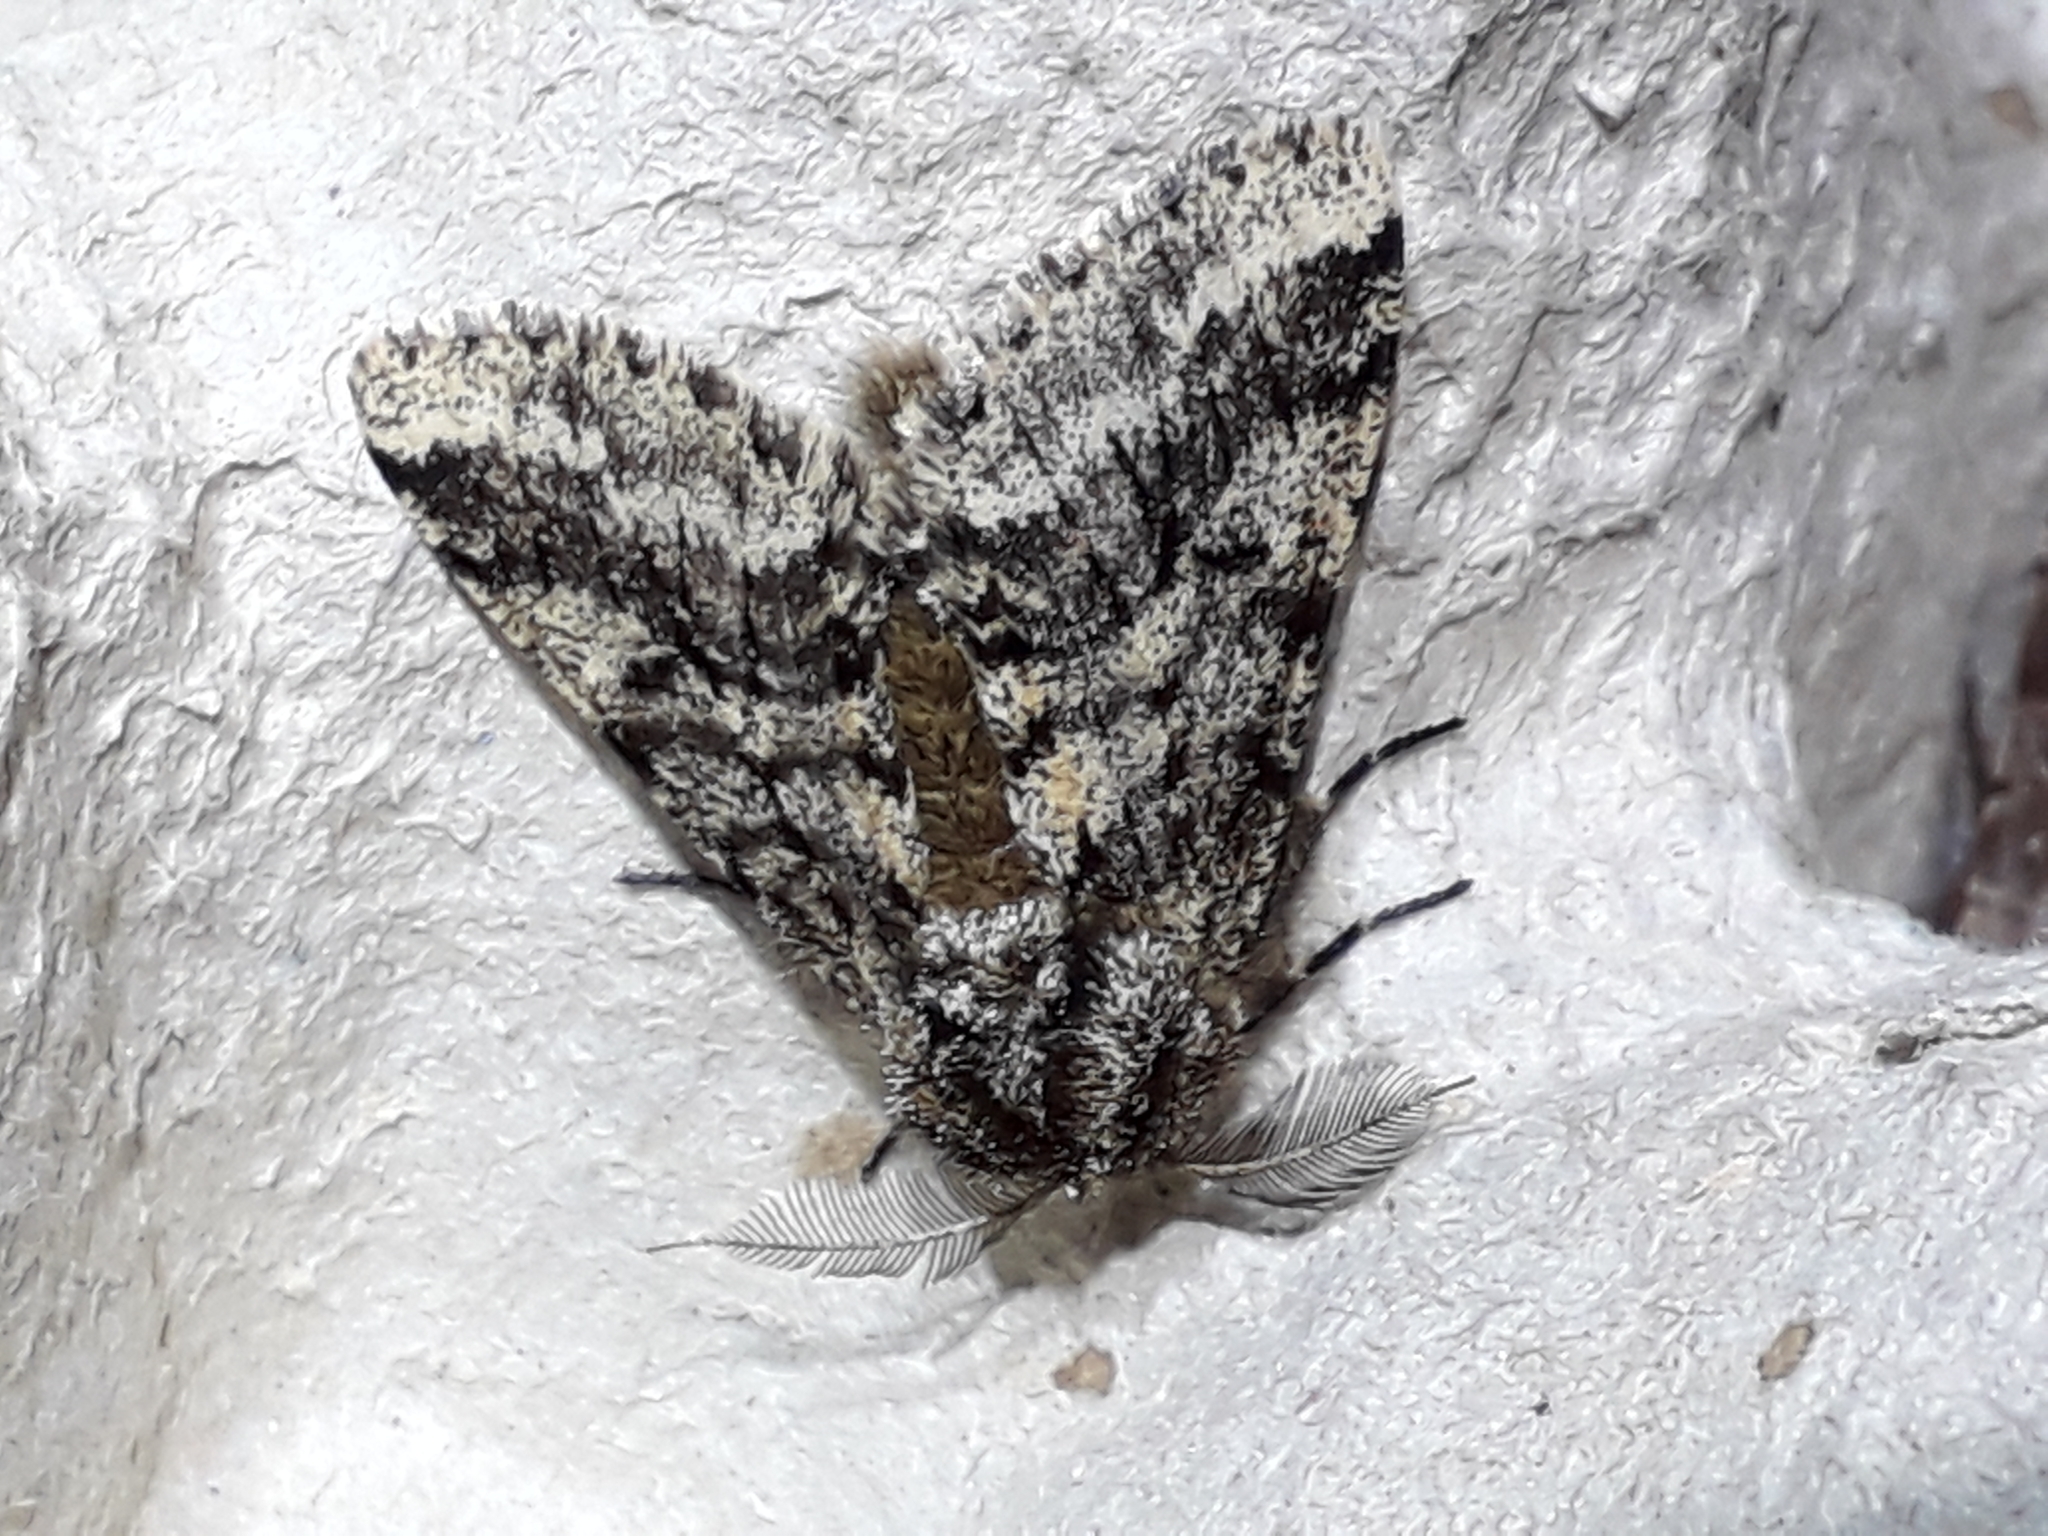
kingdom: Animalia
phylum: Arthropoda
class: Insecta
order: Lepidoptera
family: Geometridae
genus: Lycia
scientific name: Lycia hirtaria
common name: Brindled beauty
